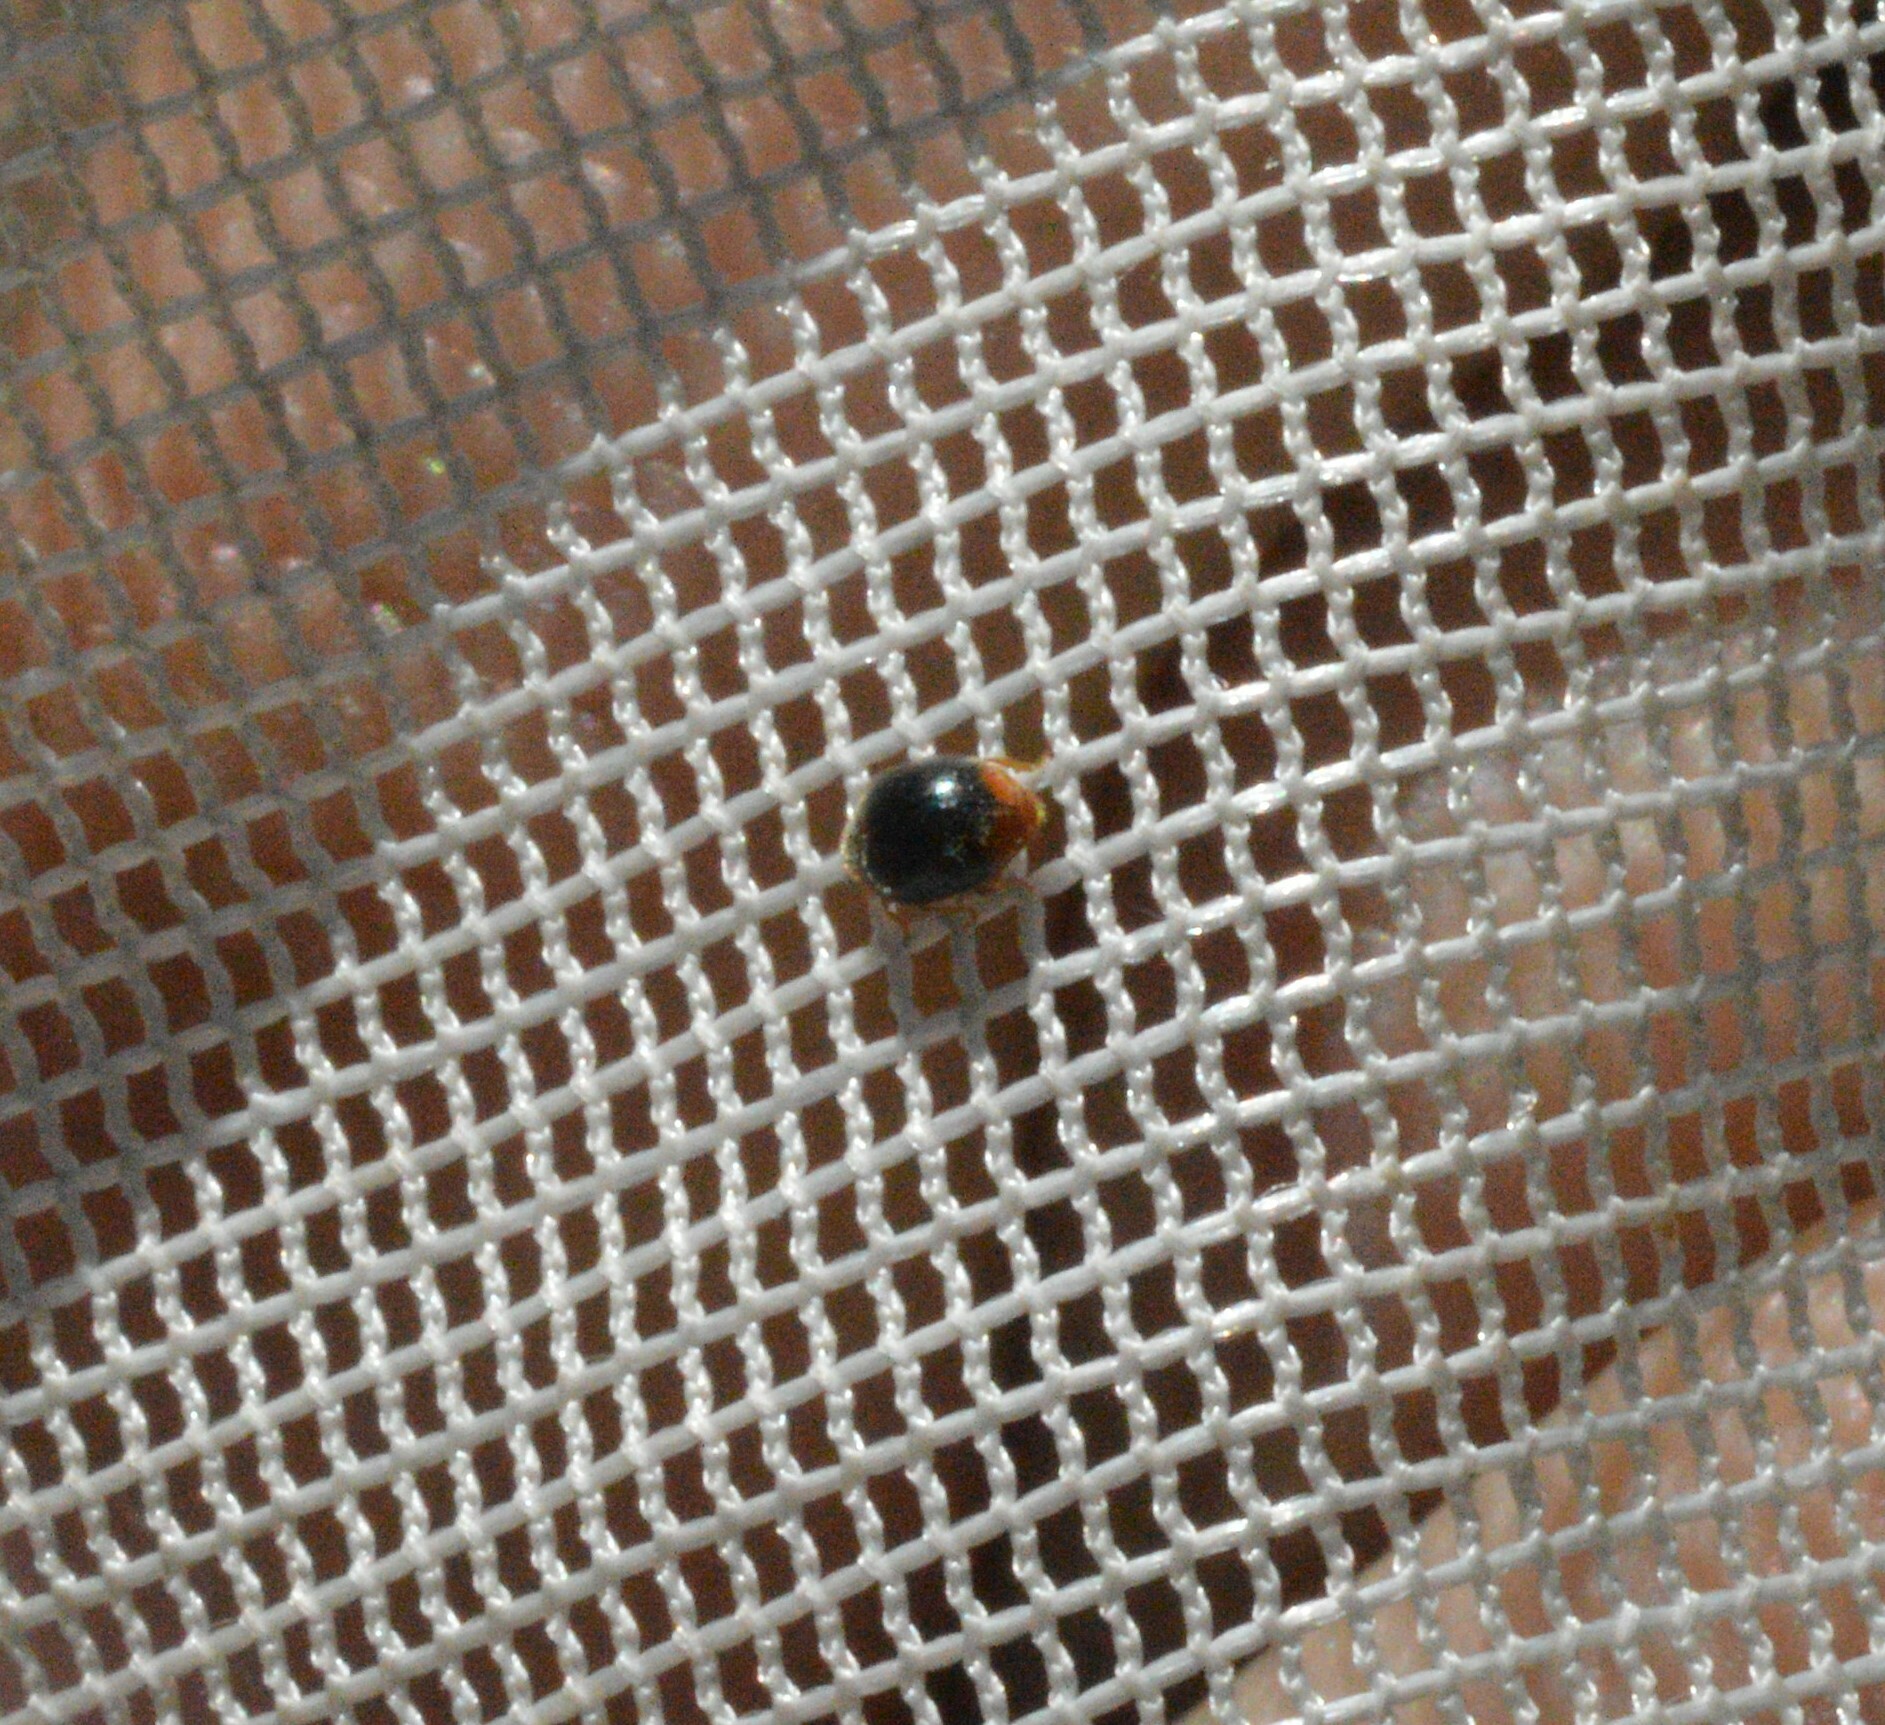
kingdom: Animalia
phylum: Arthropoda
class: Insecta
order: Coleoptera
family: Coccinellidae
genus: Cryptolaemus
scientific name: Cryptolaemus montrouzieri
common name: Mealybug destroyer
